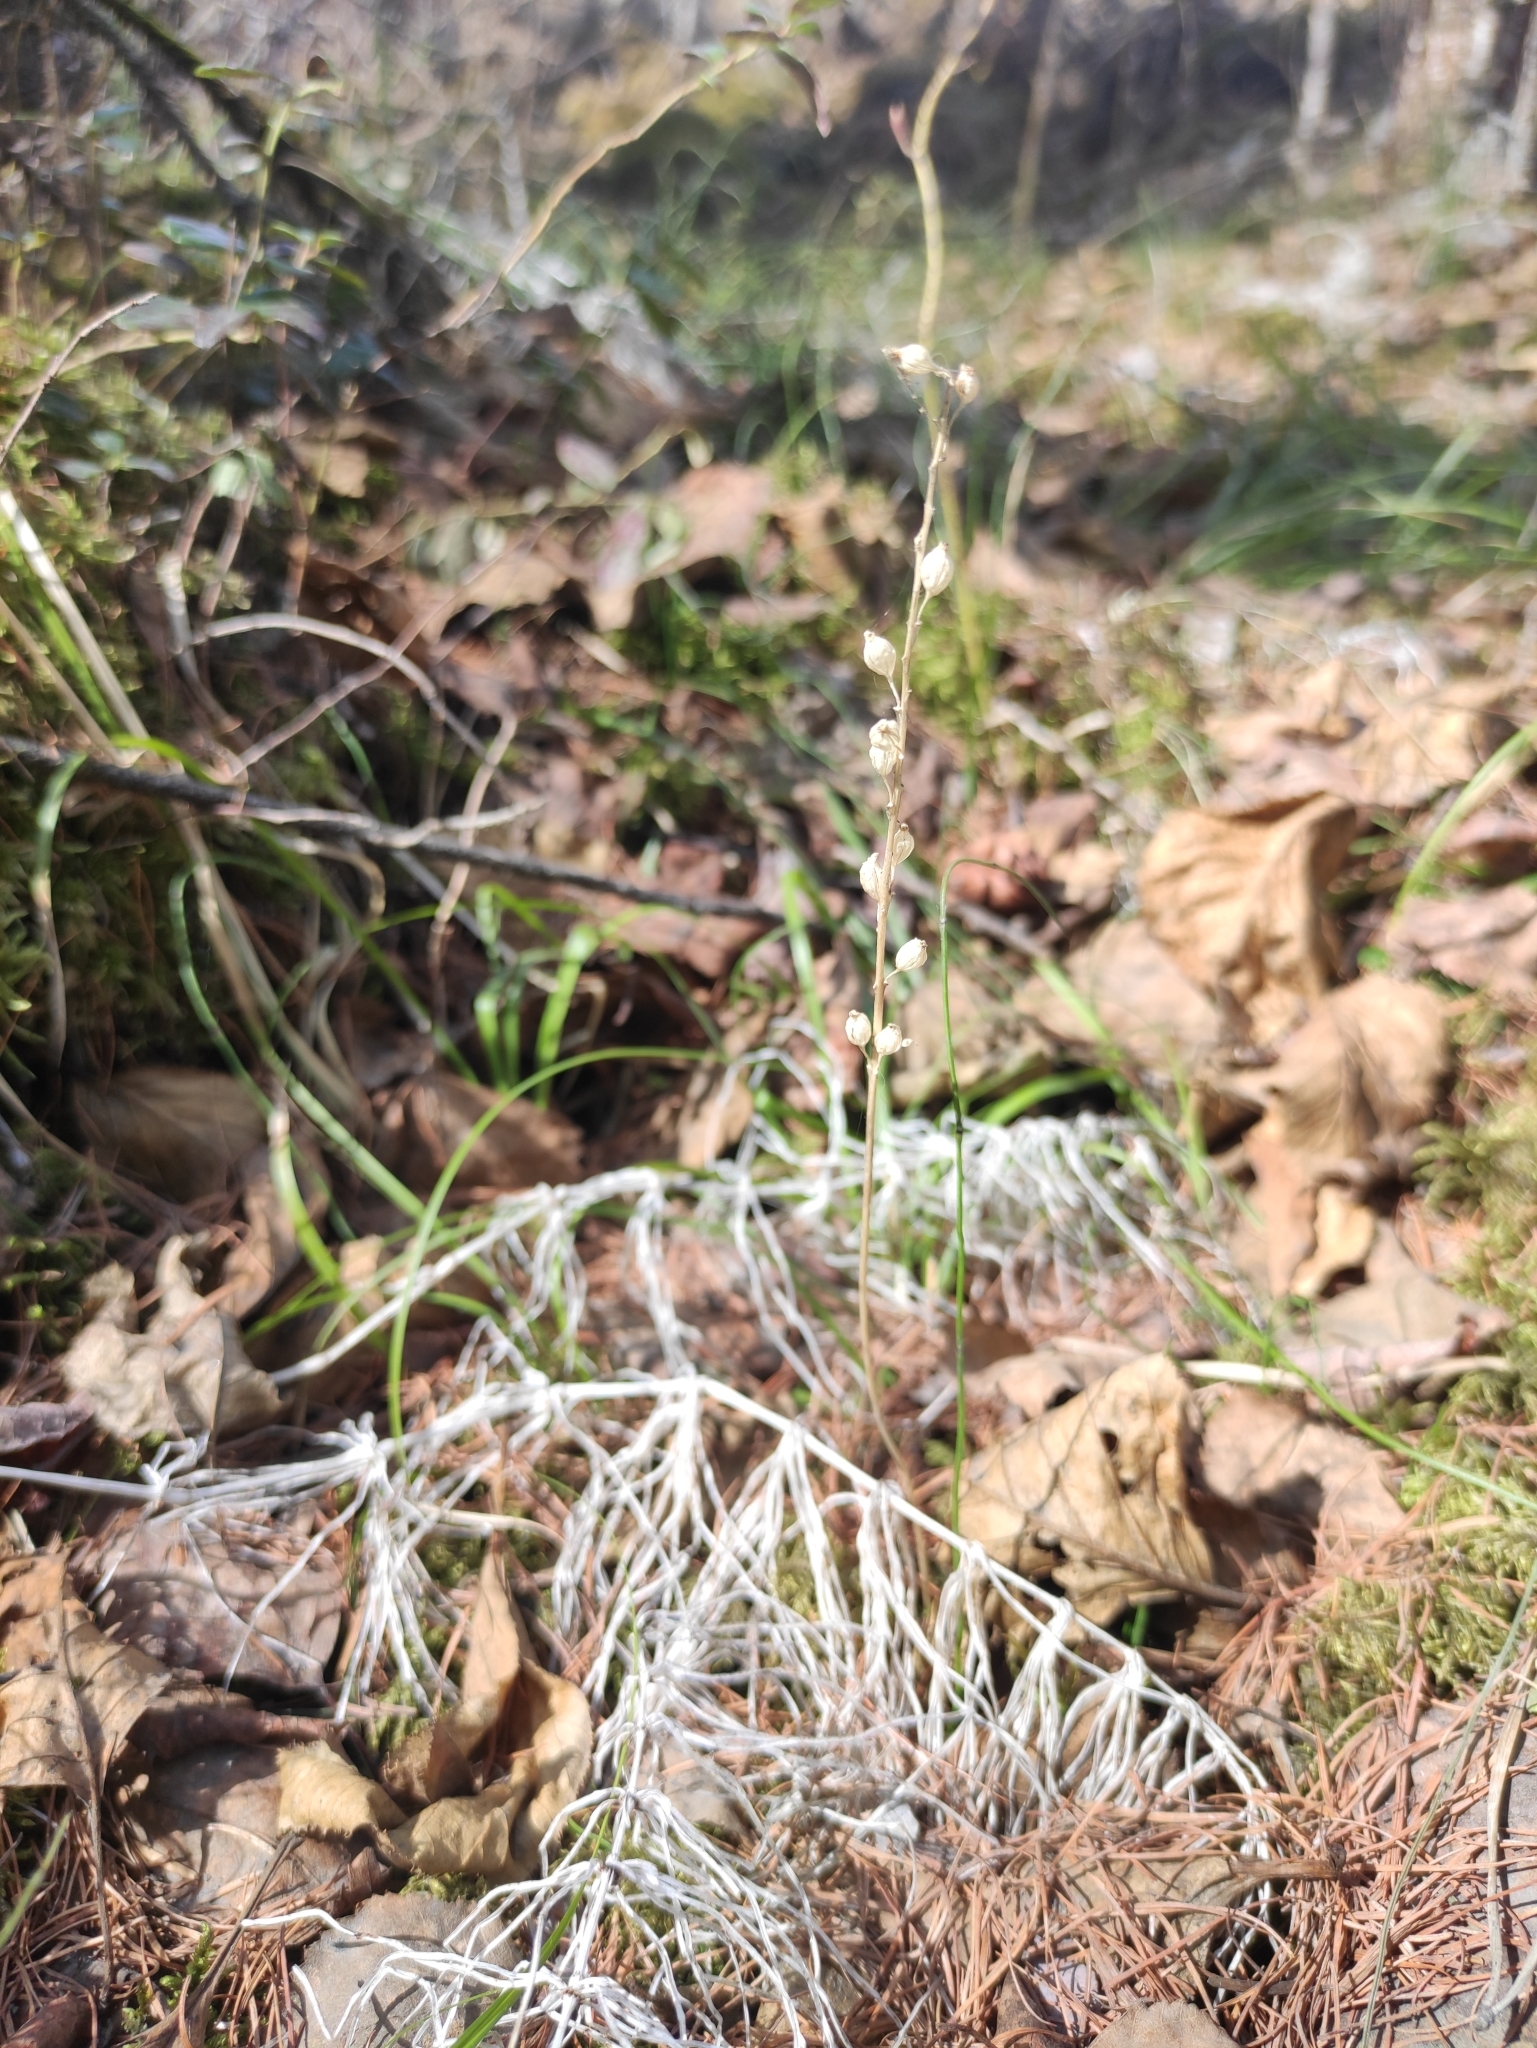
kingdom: Plantae
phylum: Tracheophyta
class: Liliopsida
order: Asparagales
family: Orchidaceae
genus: Malaxis
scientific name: Malaxis monophyllos
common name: White adder's-mouth
